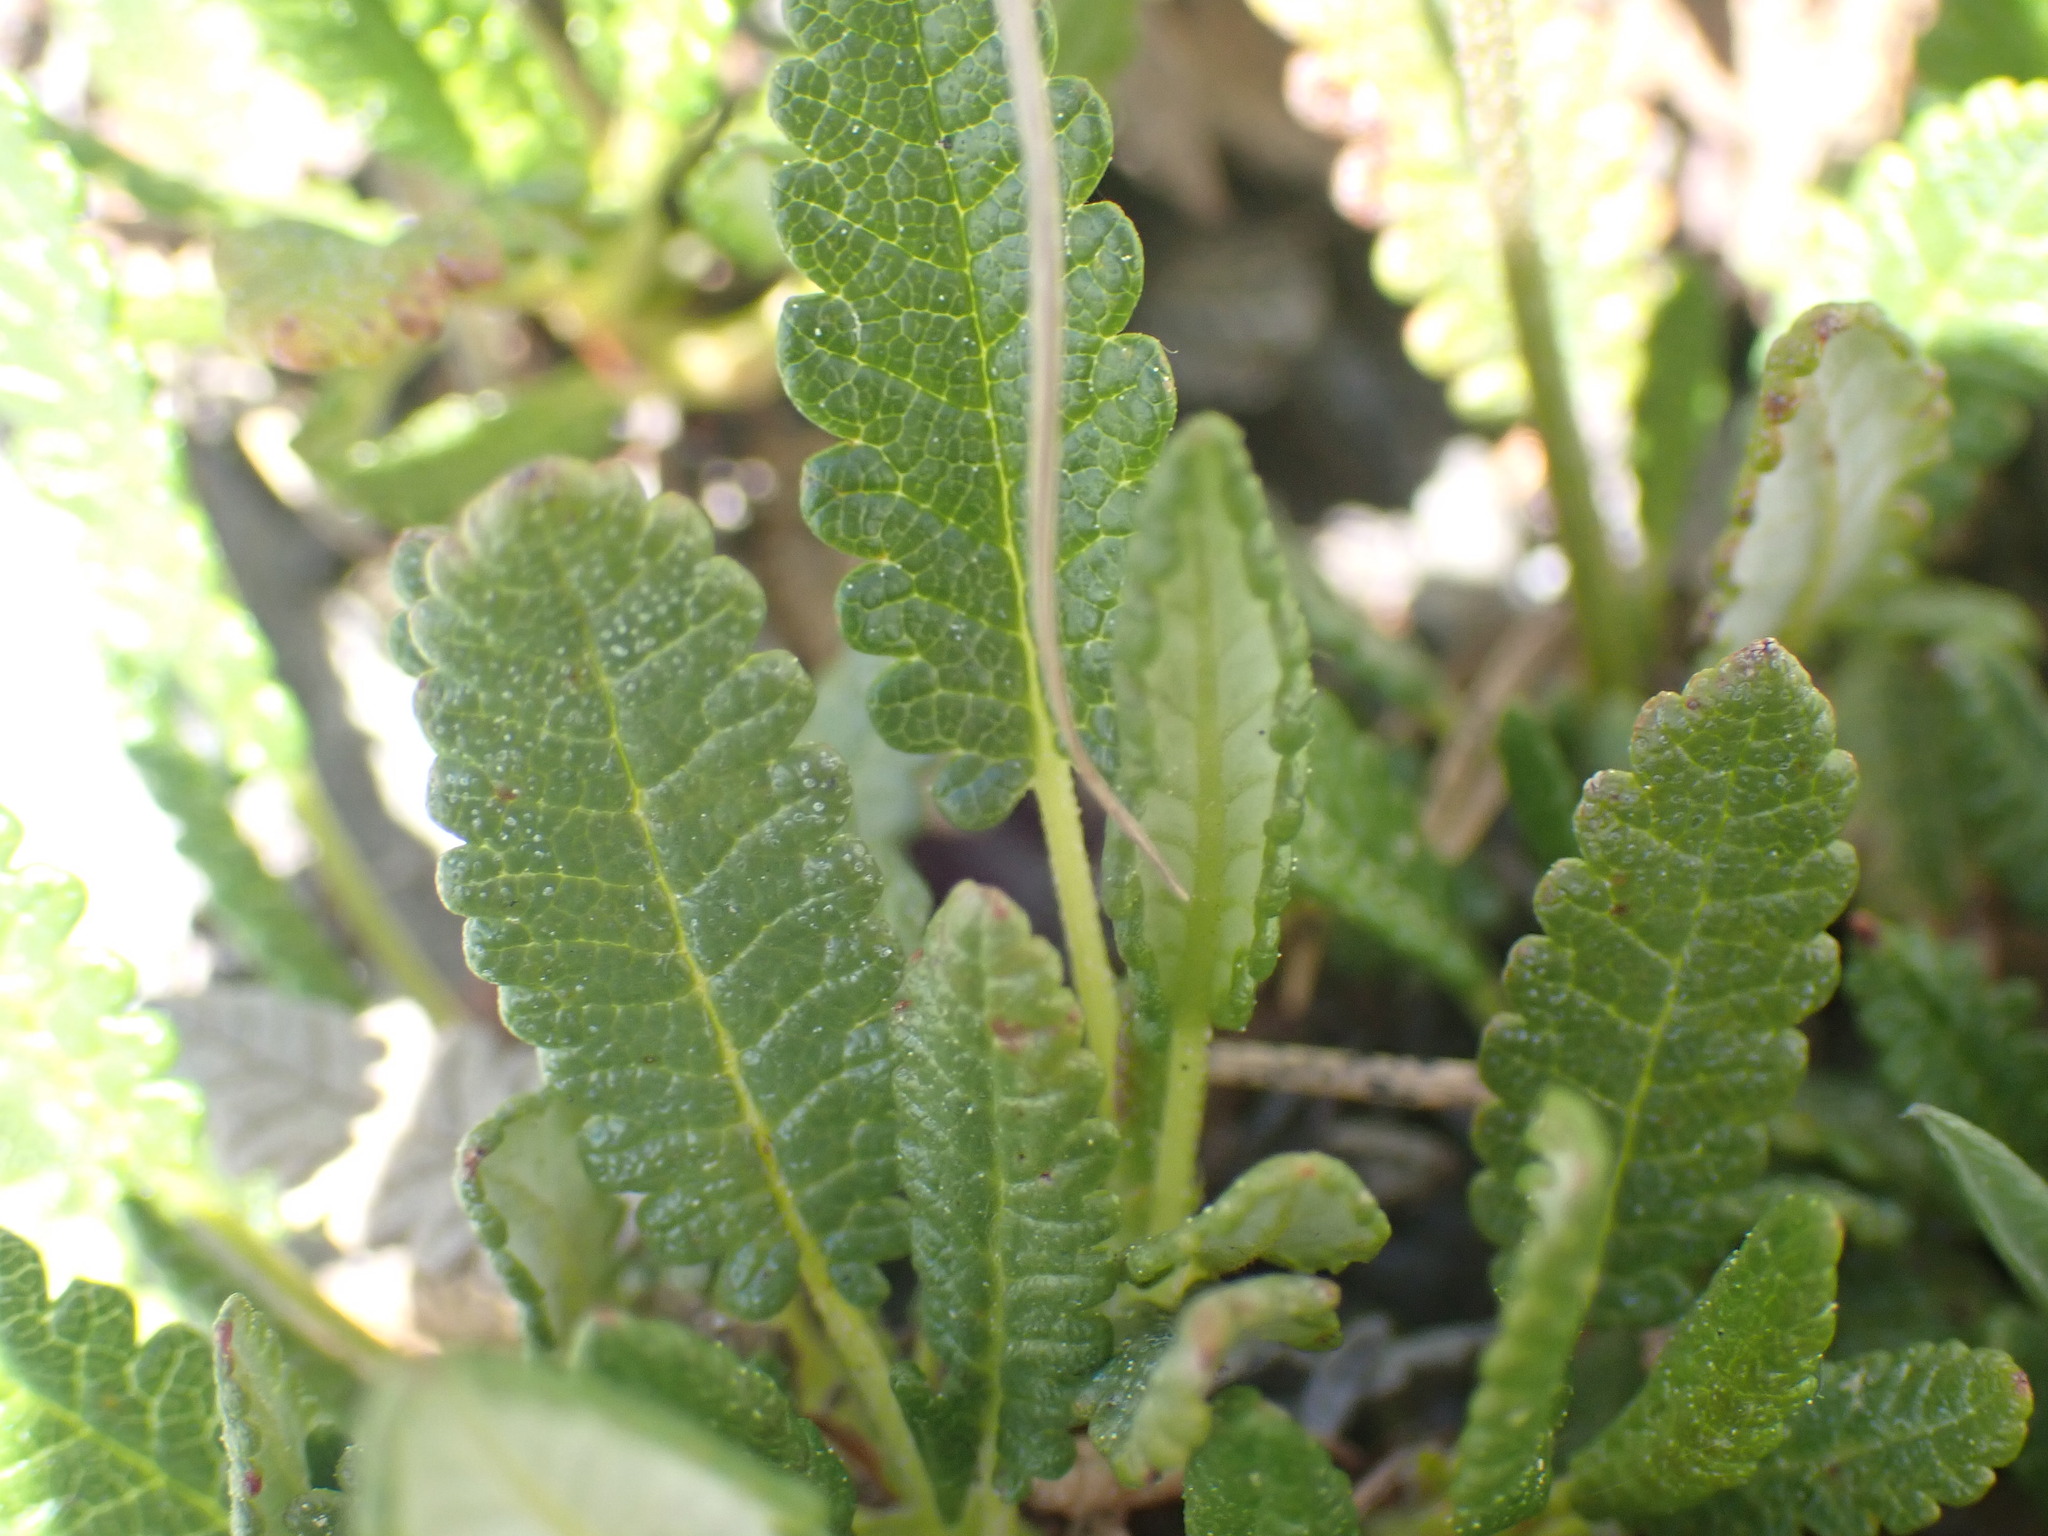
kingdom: Plantae
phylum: Tracheophyta
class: Magnoliopsida
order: Rosales
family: Rosaceae
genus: Dryas
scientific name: Dryas octopetala
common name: Eight-petal mountain-avens
